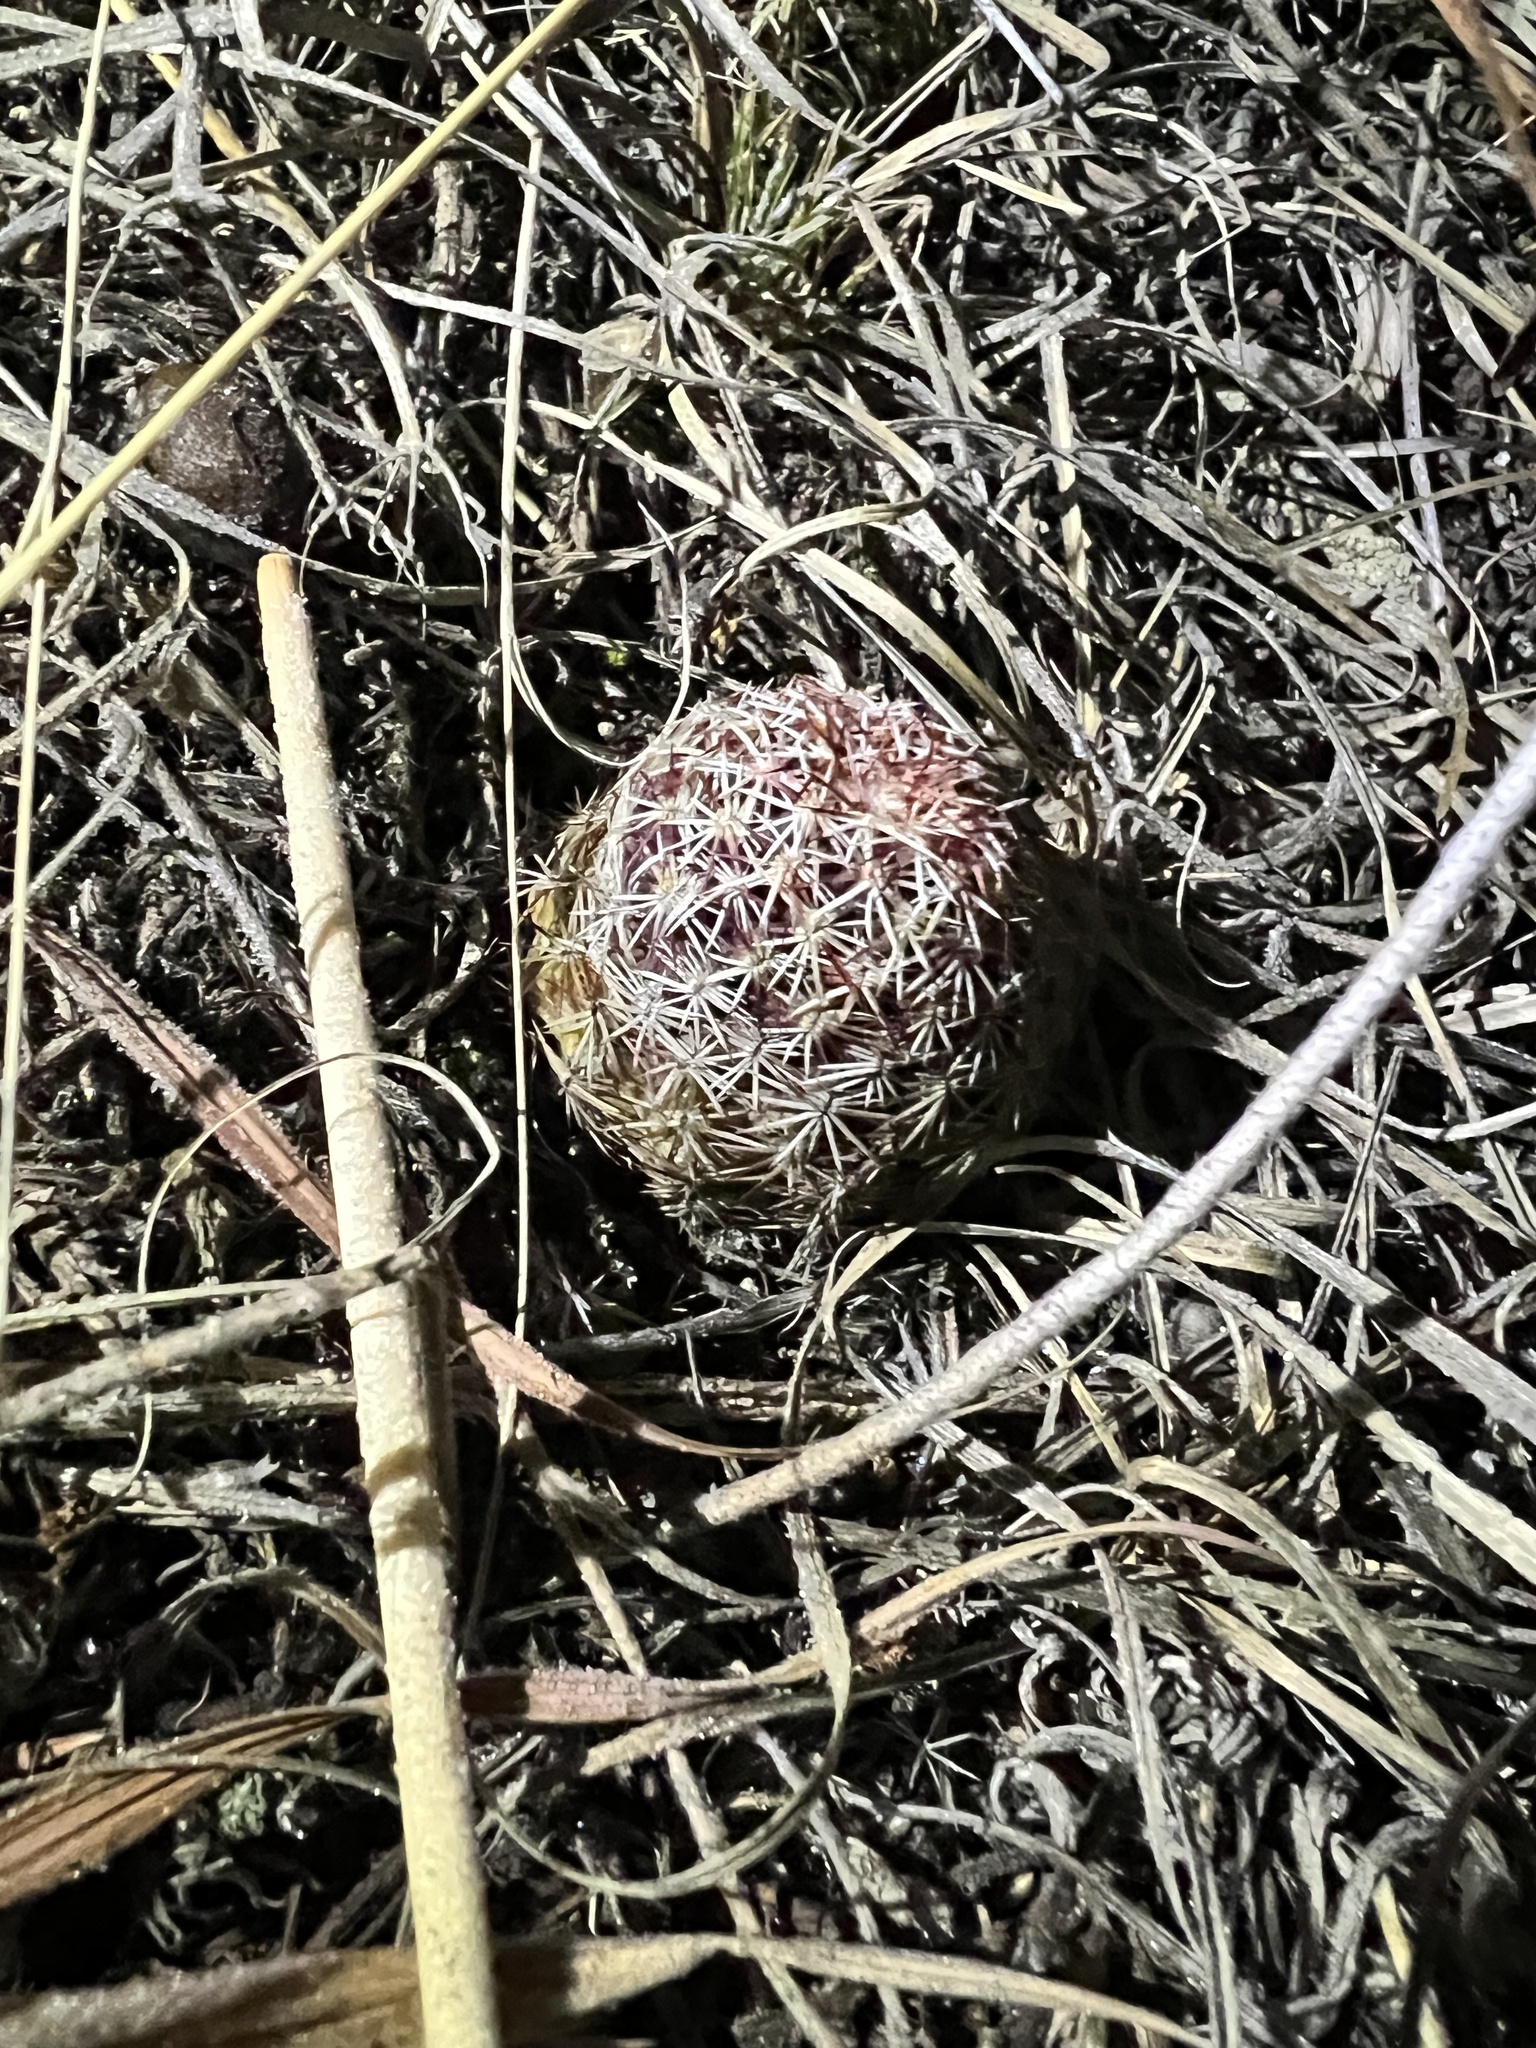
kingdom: Plantae
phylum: Tracheophyta
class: Magnoliopsida
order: Caryophyllales
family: Cactaceae
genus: Echinocereus
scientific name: Echinocereus viridiflorus
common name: Nylon hedgehog cactus
